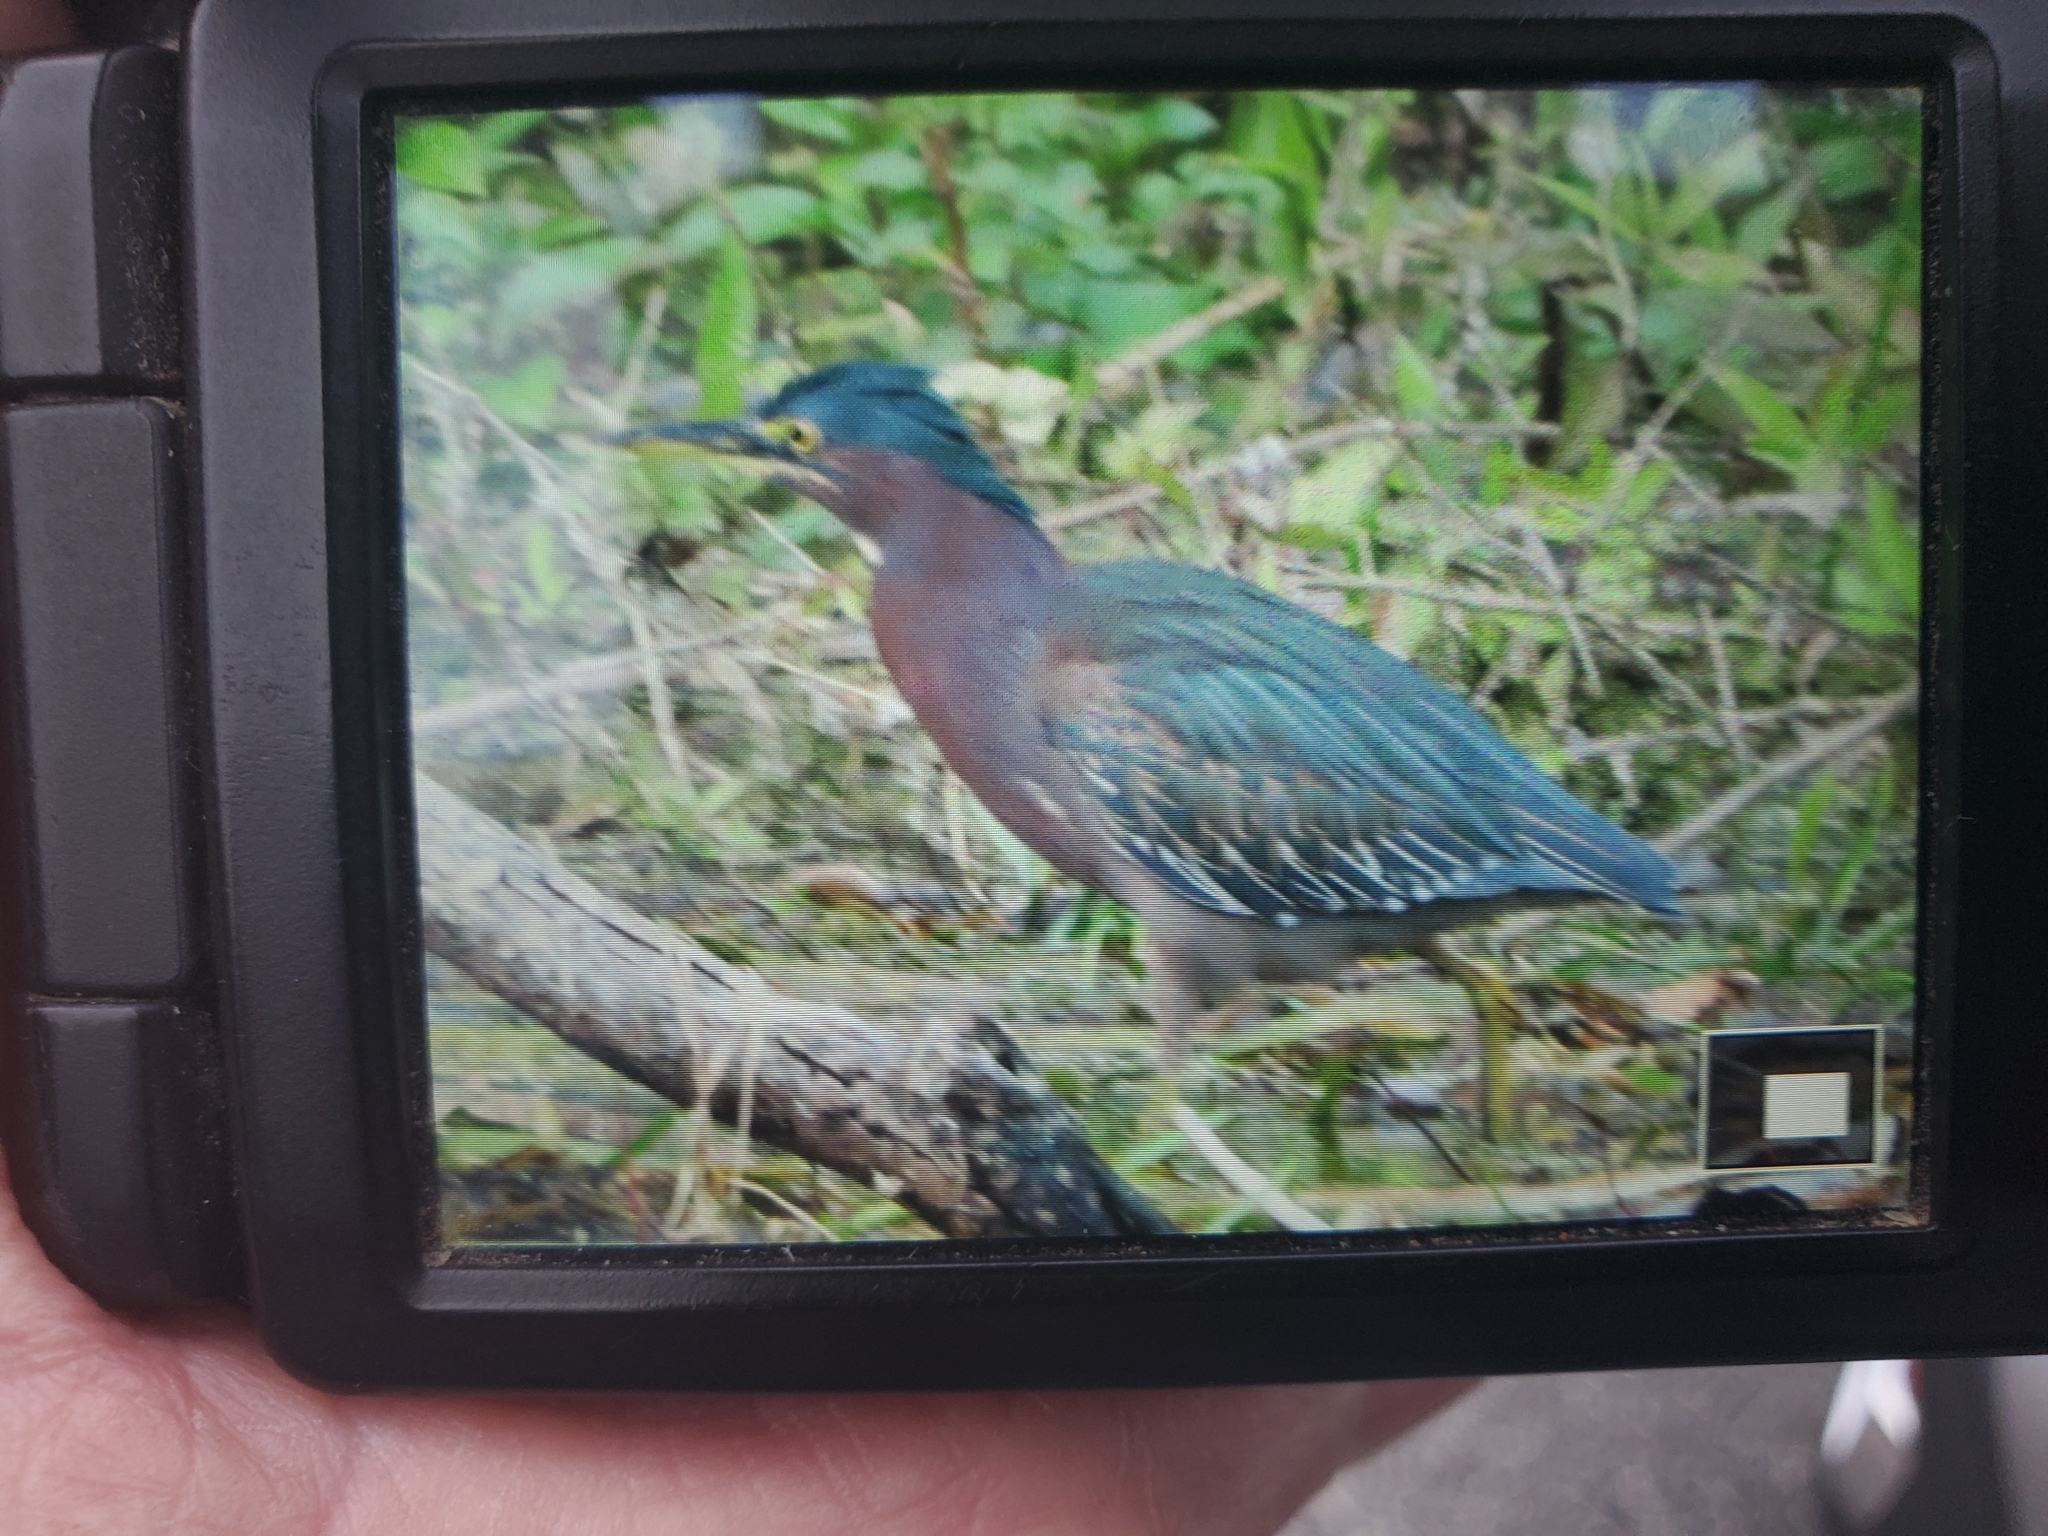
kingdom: Animalia
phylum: Chordata
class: Aves
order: Pelecaniformes
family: Ardeidae
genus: Butorides
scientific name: Butorides virescens
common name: Green heron
